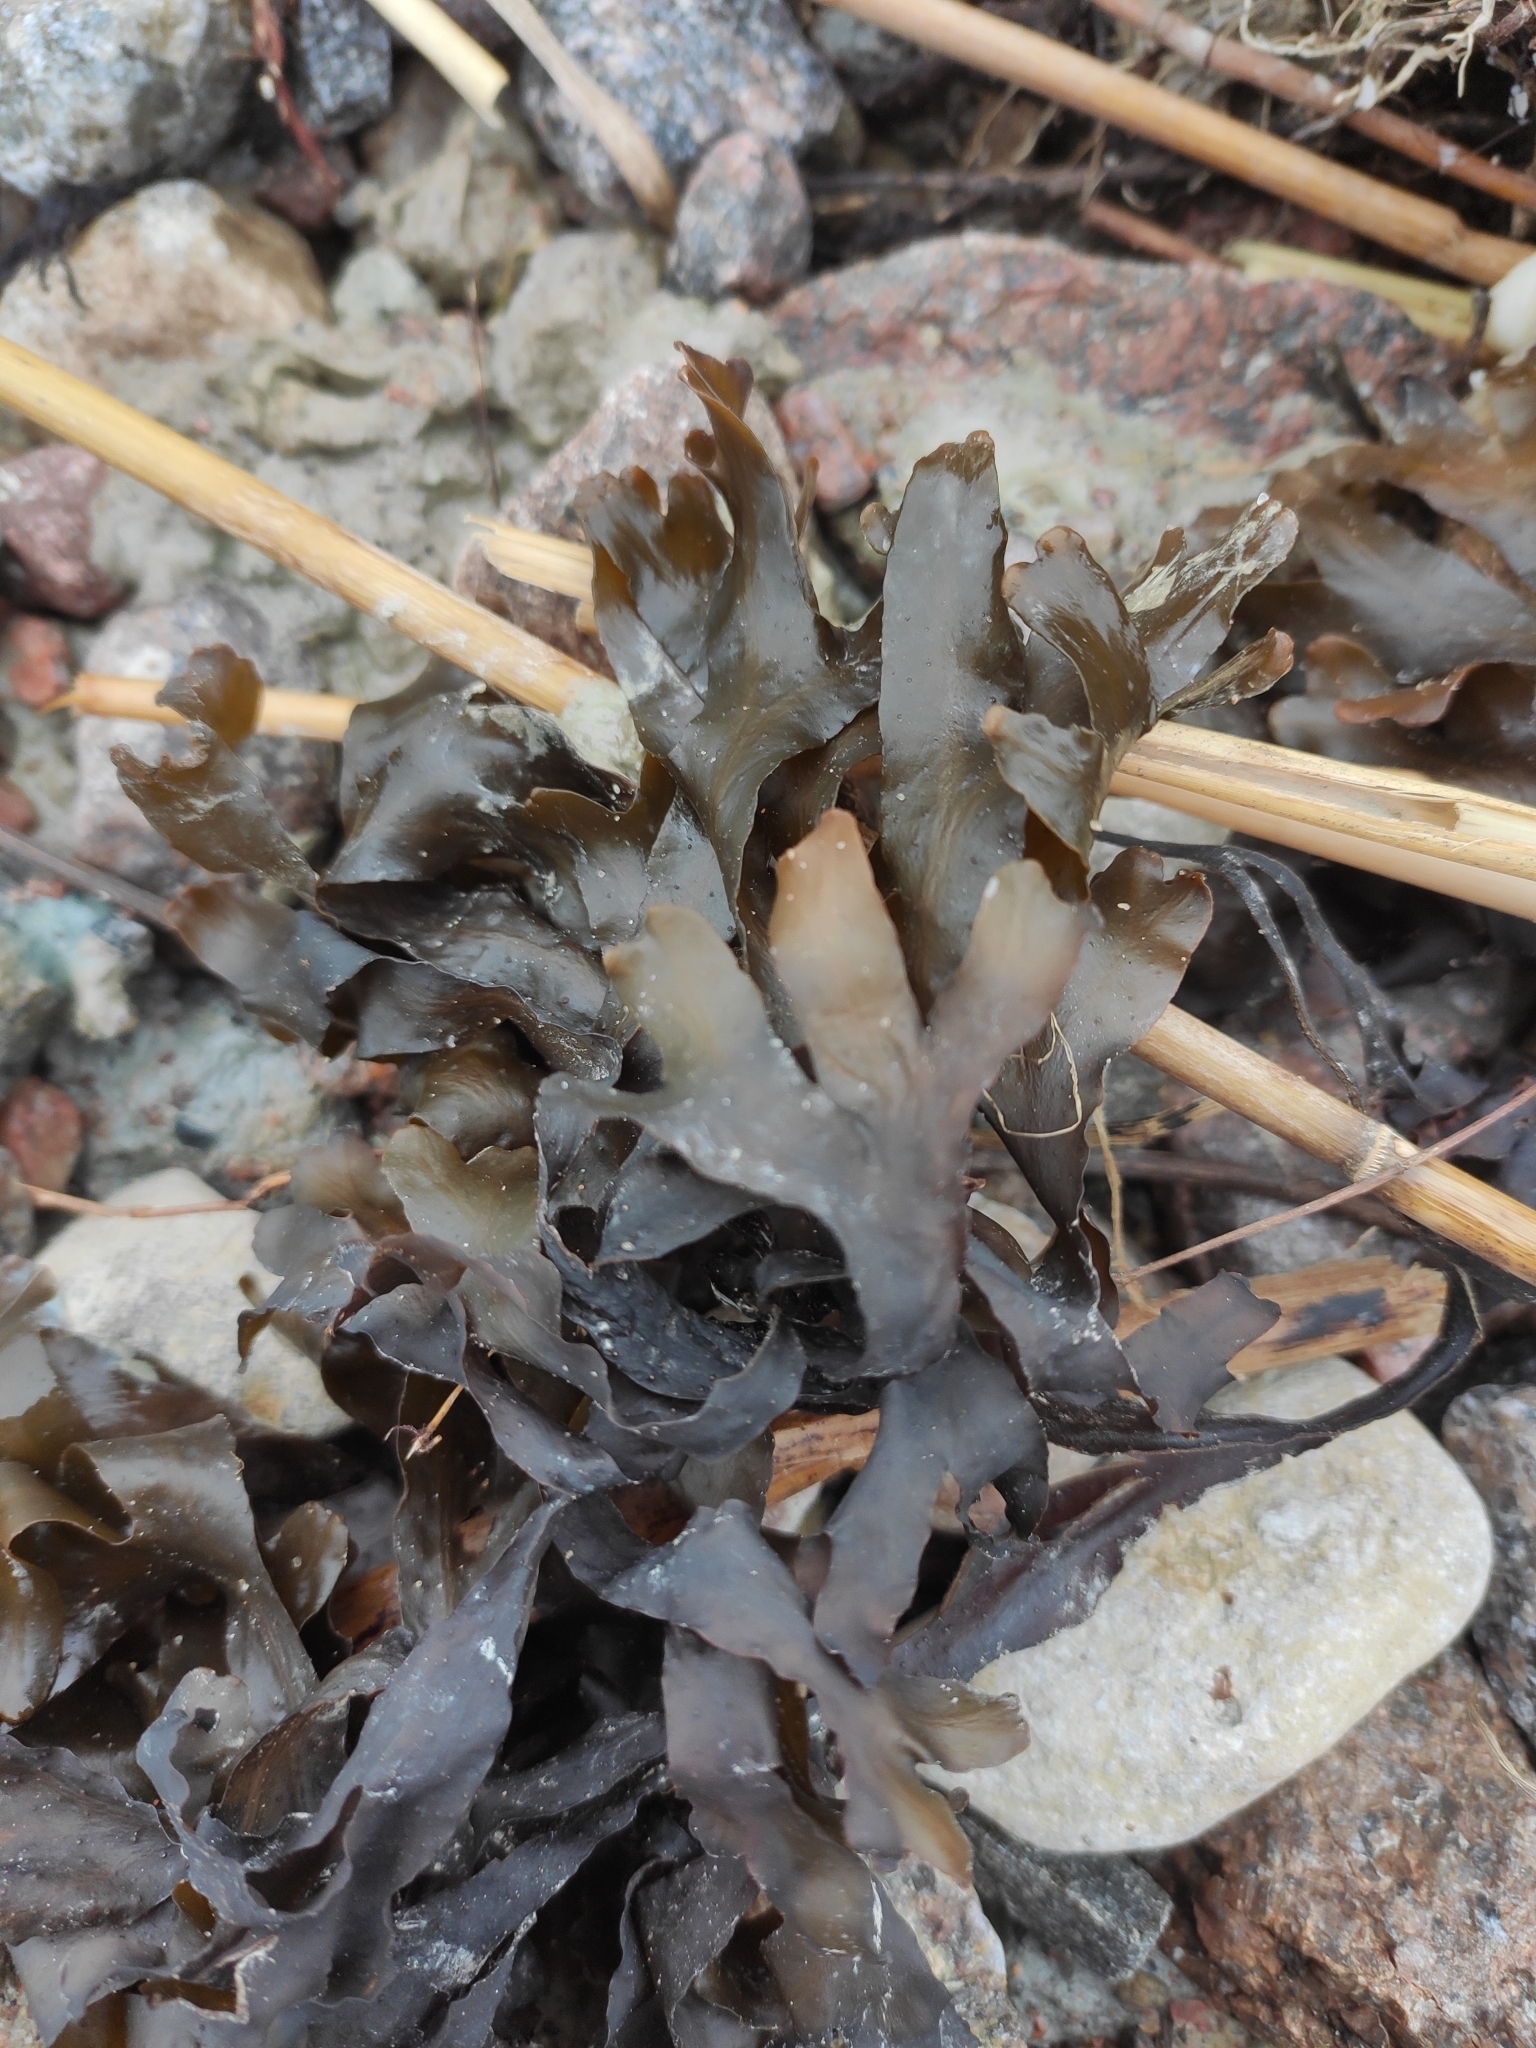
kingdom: Chromista
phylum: Ochrophyta
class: Phaeophyceae
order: Fucales
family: Fucaceae
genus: Fucus
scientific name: Fucus vesiculosus
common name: Bladder wrack
